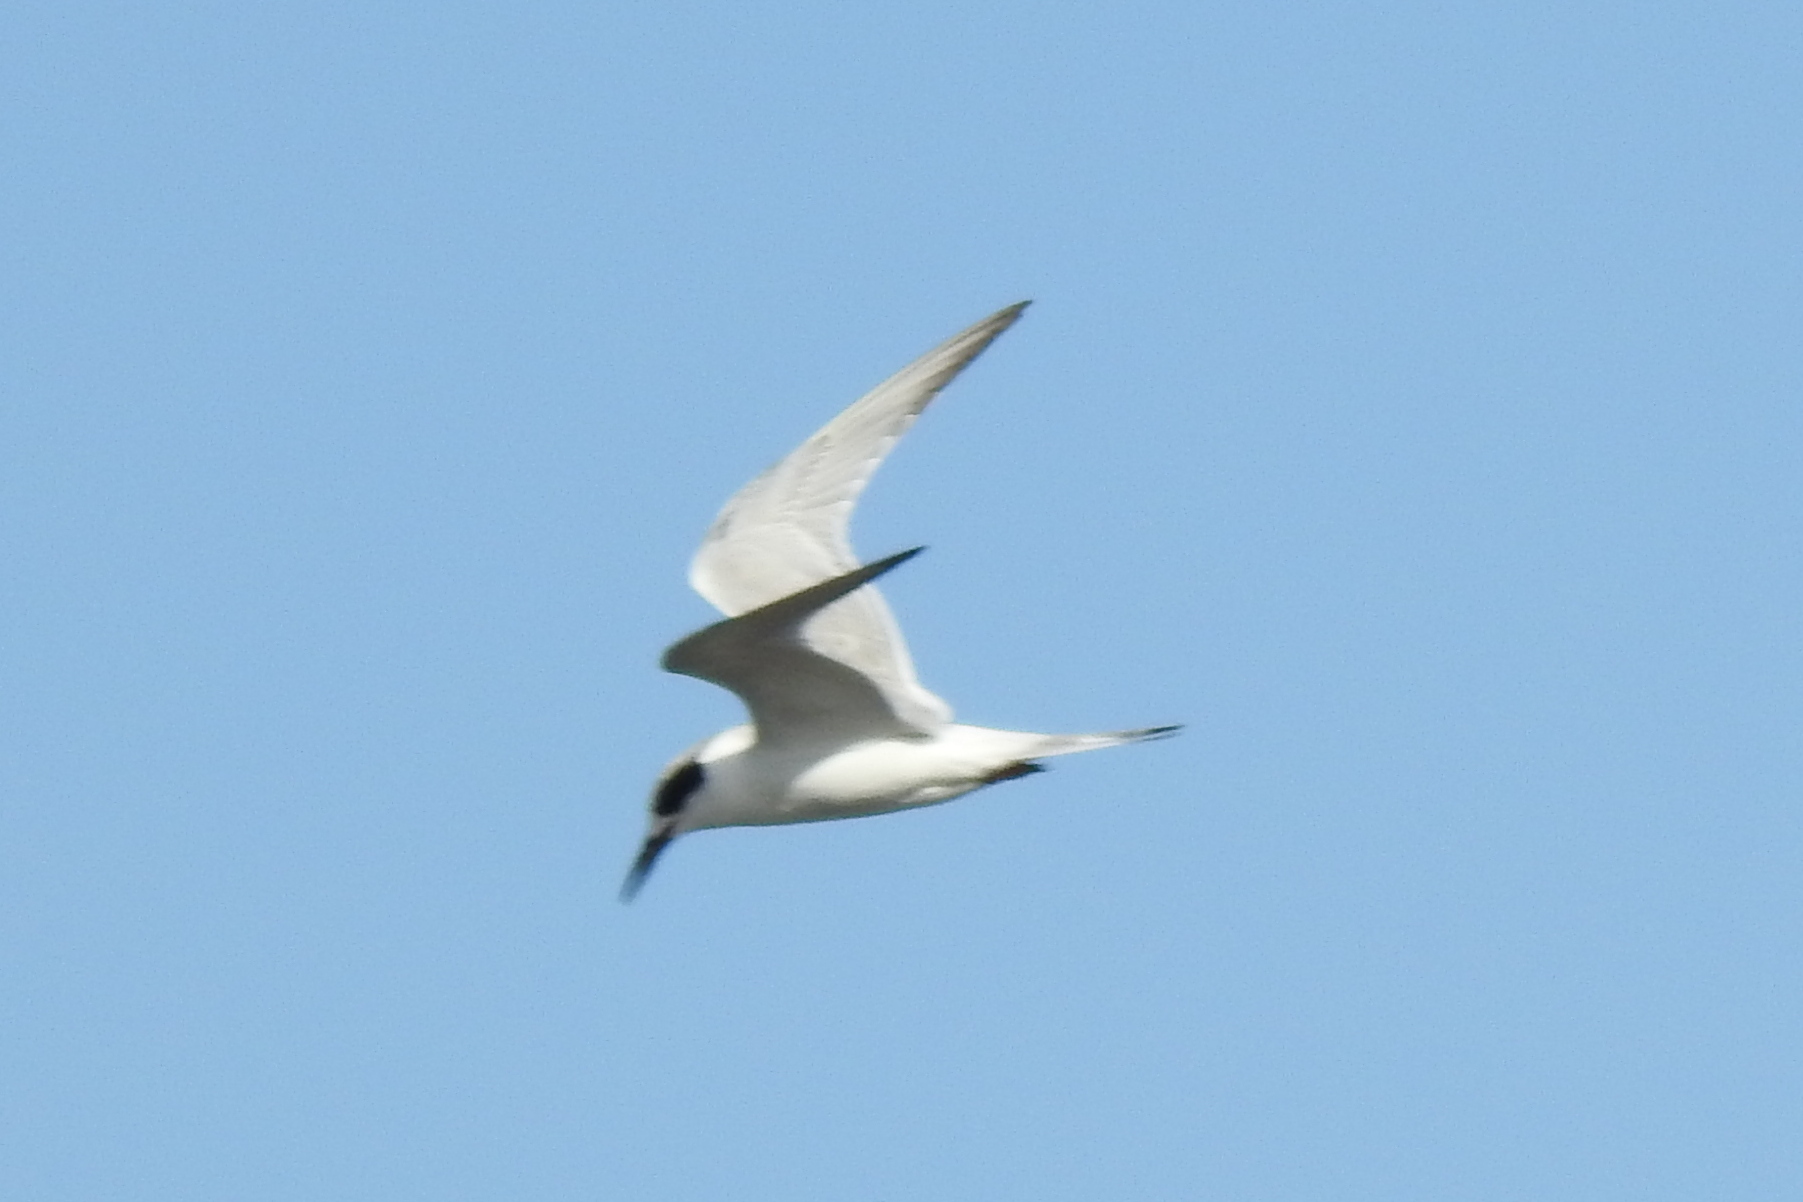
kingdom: Animalia
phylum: Chordata
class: Aves
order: Charadriiformes
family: Laridae
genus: Sterna
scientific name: Sterna forsteri
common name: Forster's tern
